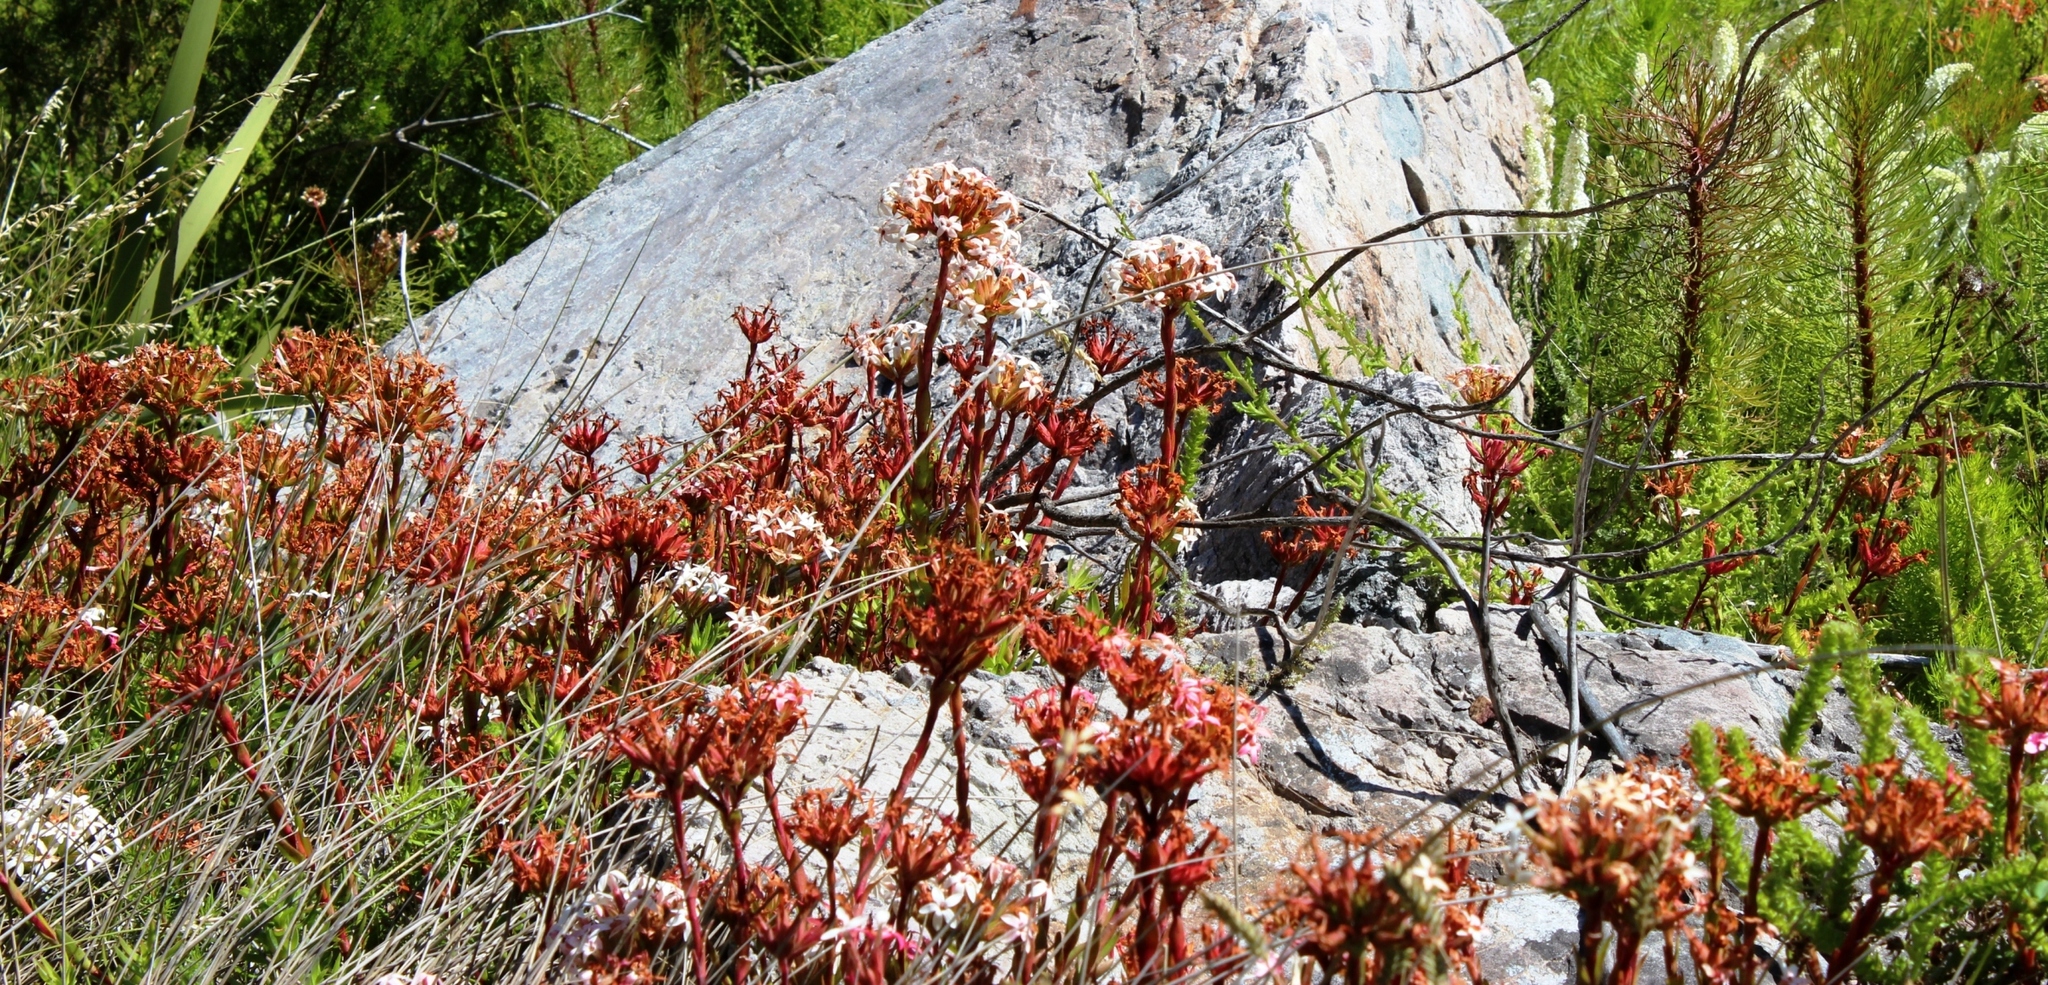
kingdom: Plantae
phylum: Tracheophyta
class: Magnoliopsida
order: Saxifragales
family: Crassulaceae
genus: Crassula
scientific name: Crassula fascicularis
